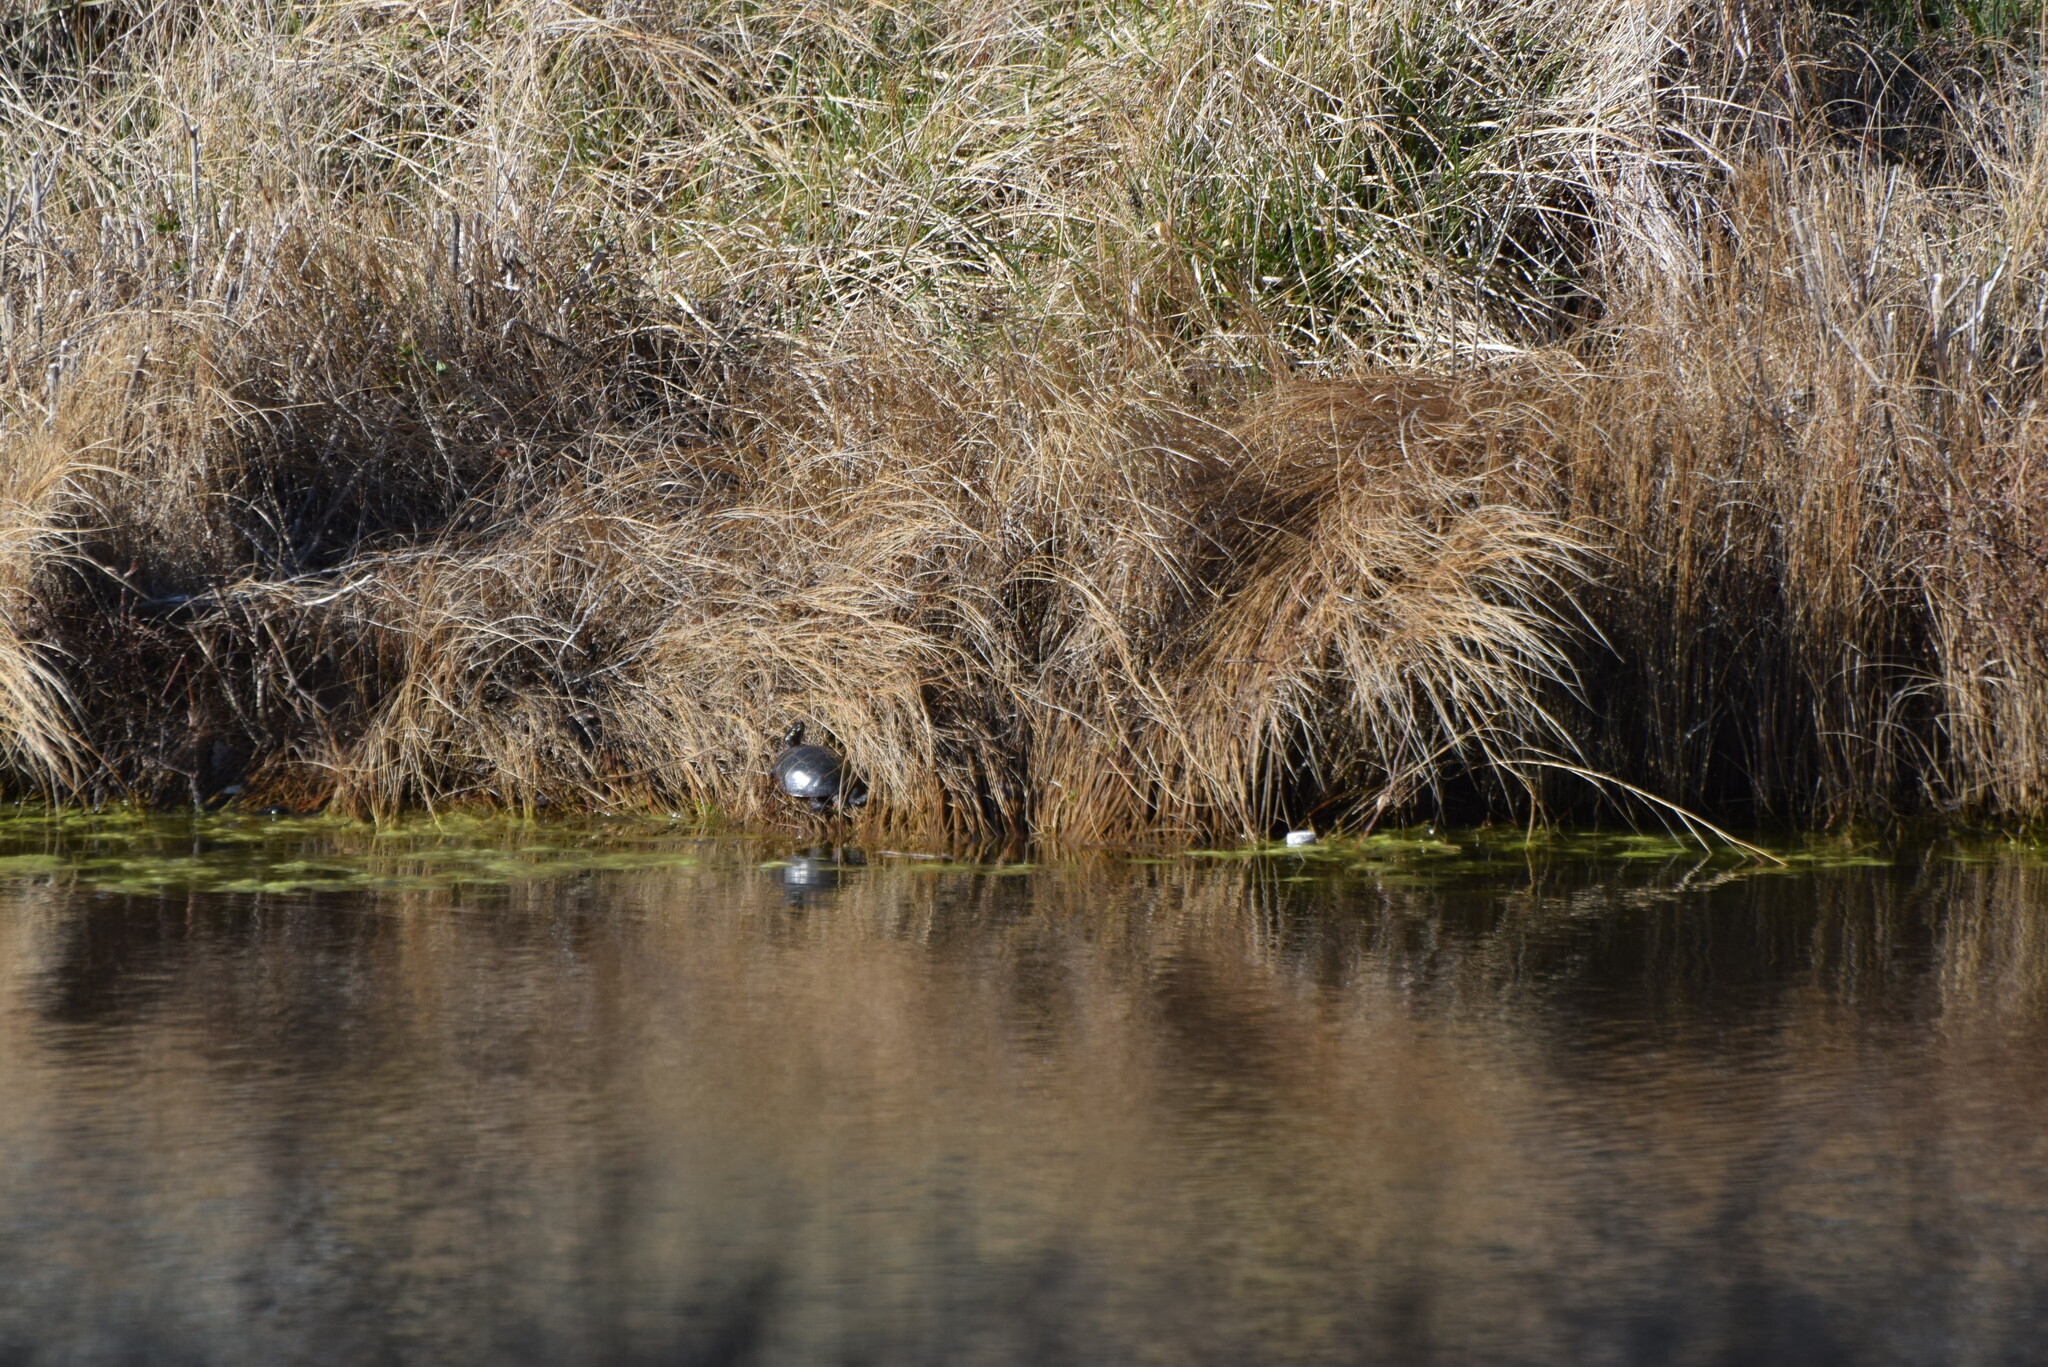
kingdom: Animalia
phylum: Chordata
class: Testudines
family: Emydidae
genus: Chrysemys
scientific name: Chrysemys picta
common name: Painted turtle
